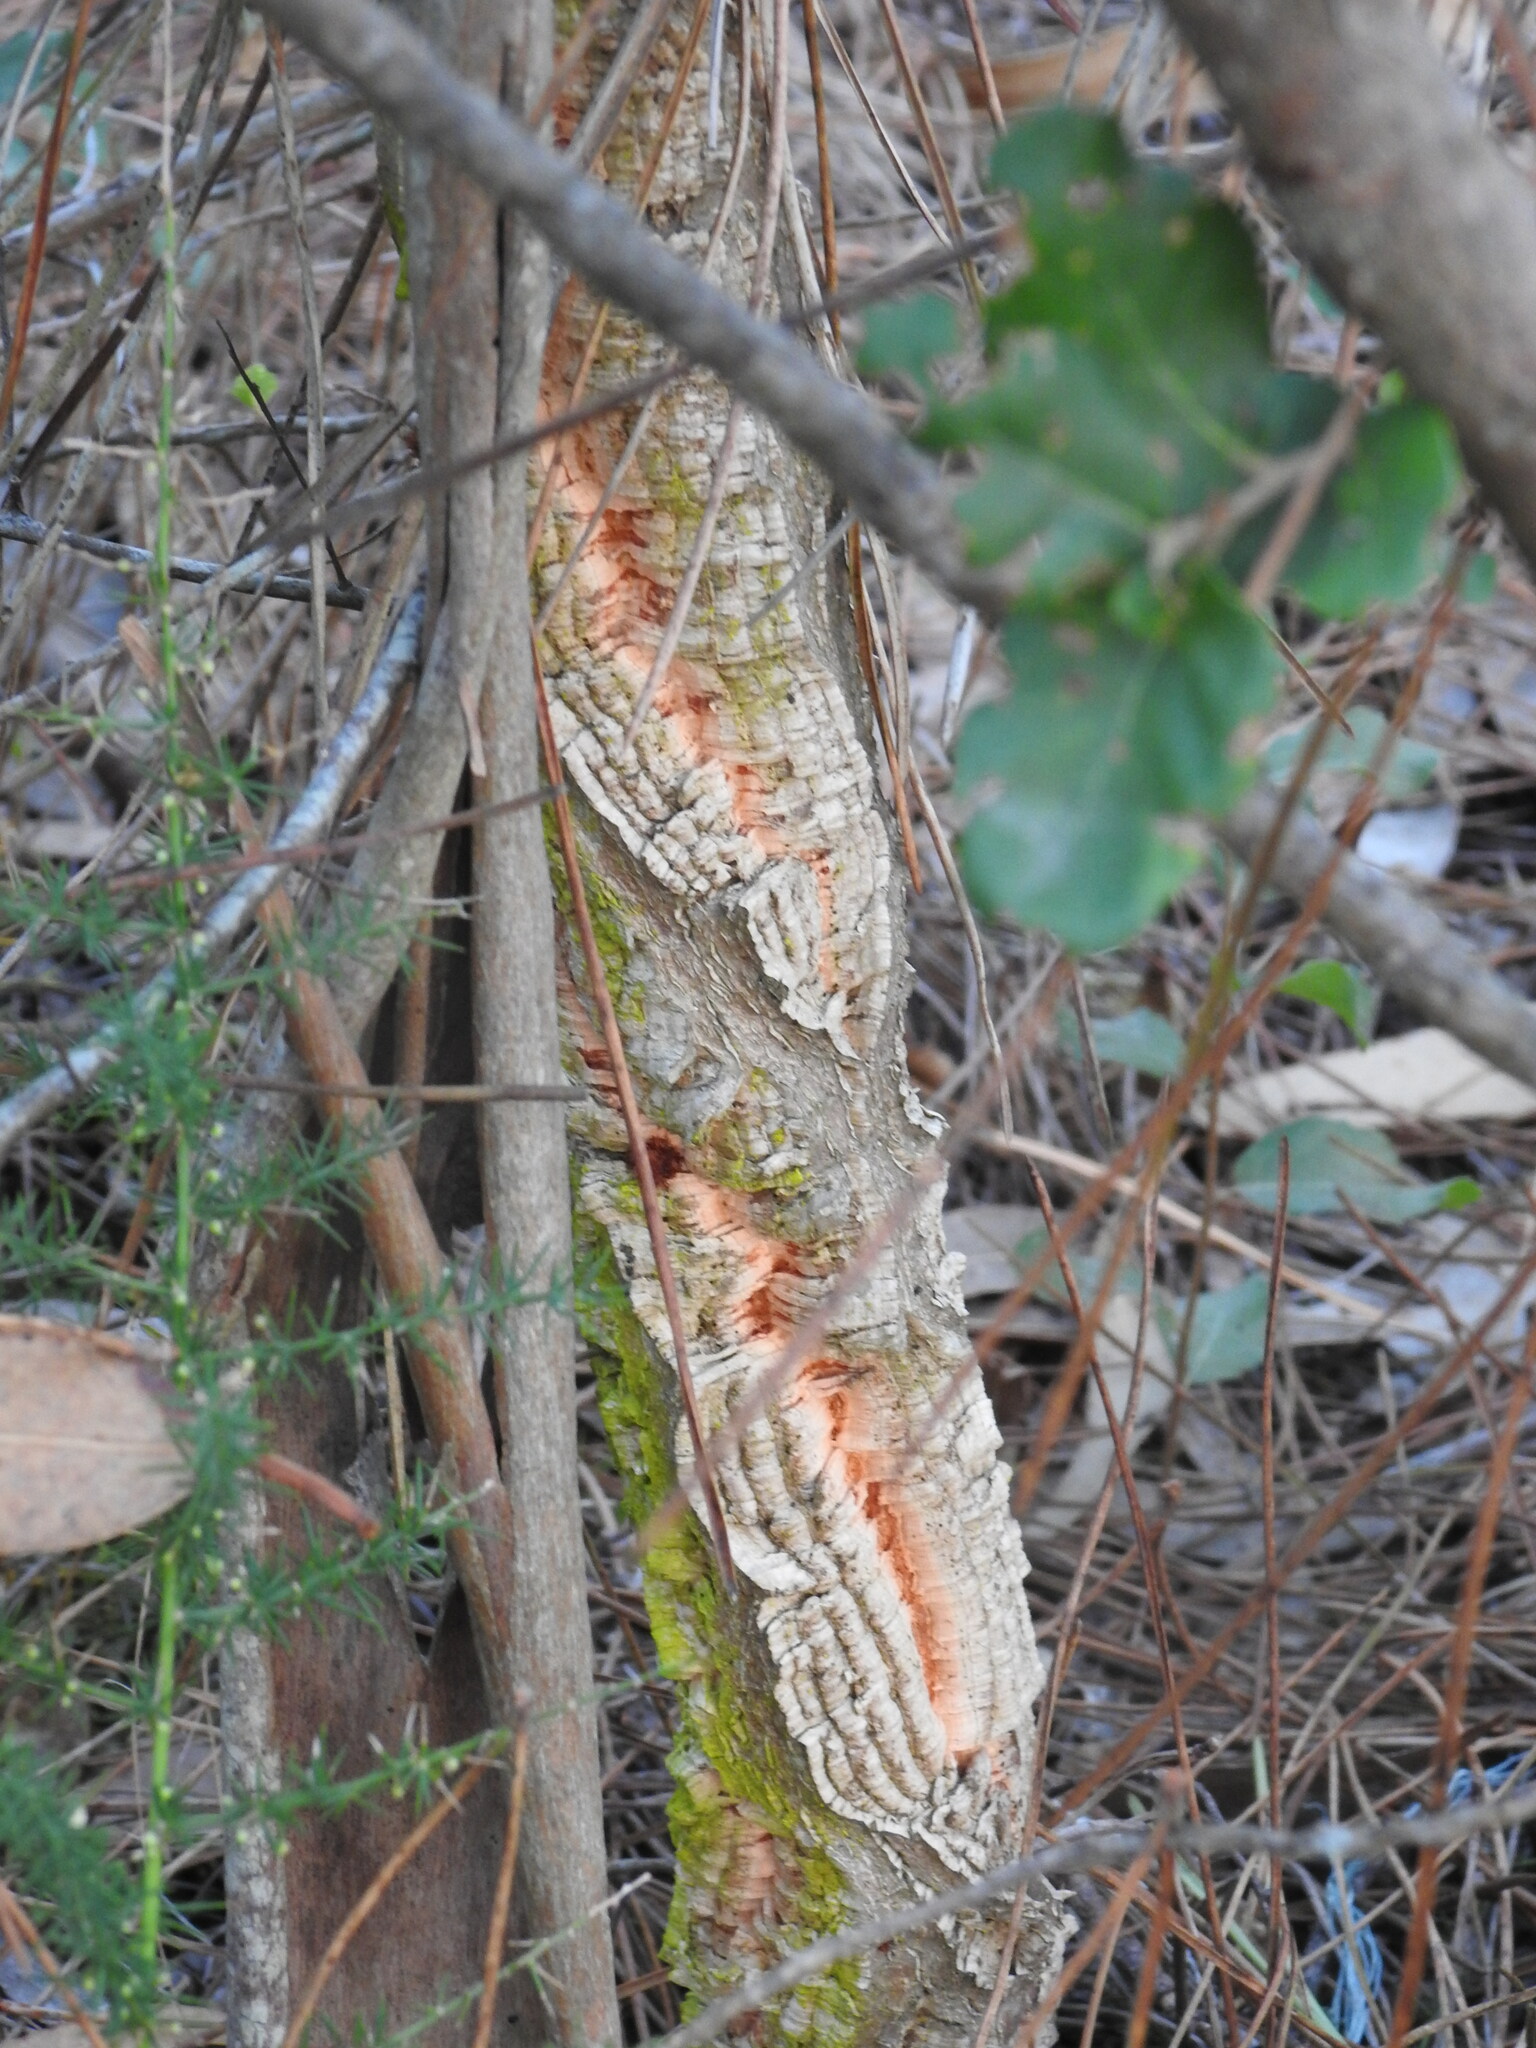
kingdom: Plantae
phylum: Tracheophyta
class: Magnoliopsida
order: Fagales
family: Fagaceae
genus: Quercus
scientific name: Quercus suber
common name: Cork oak
